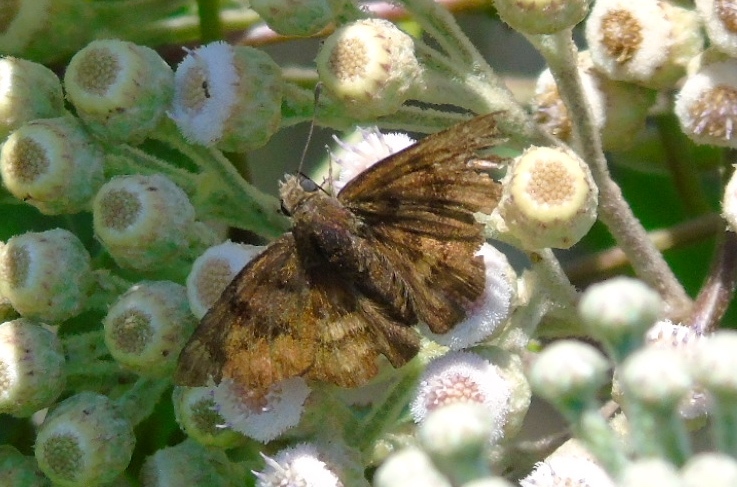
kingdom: Animalia
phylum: Arthropoda
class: Insecta
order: Lepidoptera
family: Hesperiidae
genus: Nisoniades
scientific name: Nisoniades
